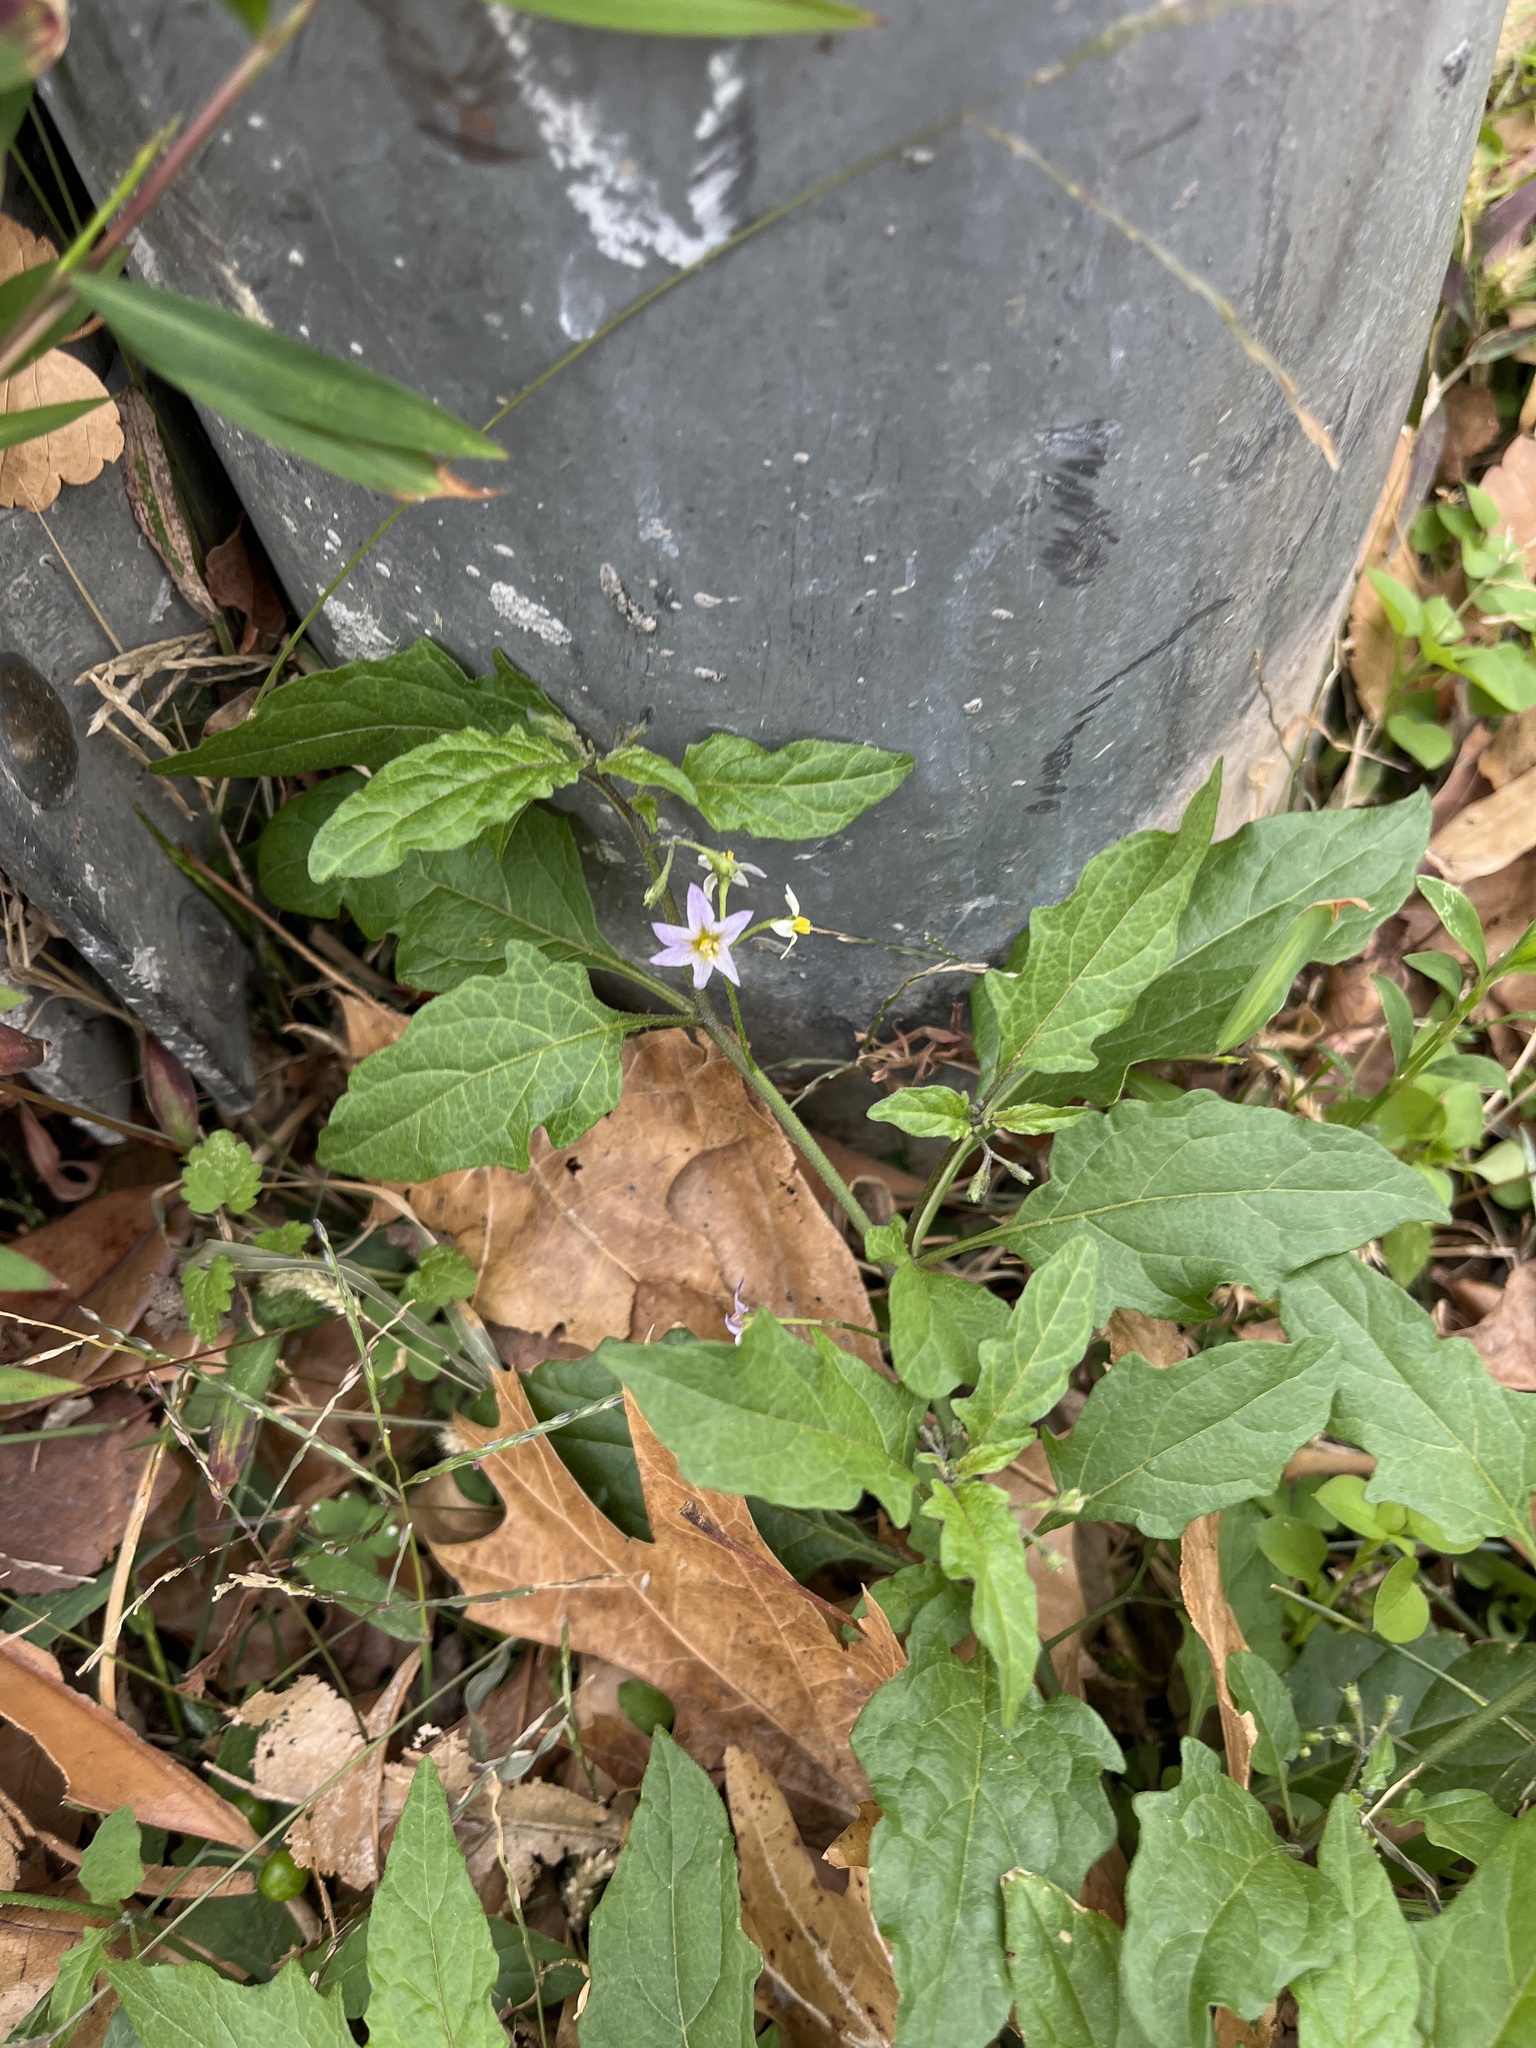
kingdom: Plantae
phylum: Tracheophyta
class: Magnoliopsida
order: Solanales
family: Solanaceae
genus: Solanum
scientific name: Solanum emulans
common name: Eastern black nightshade
